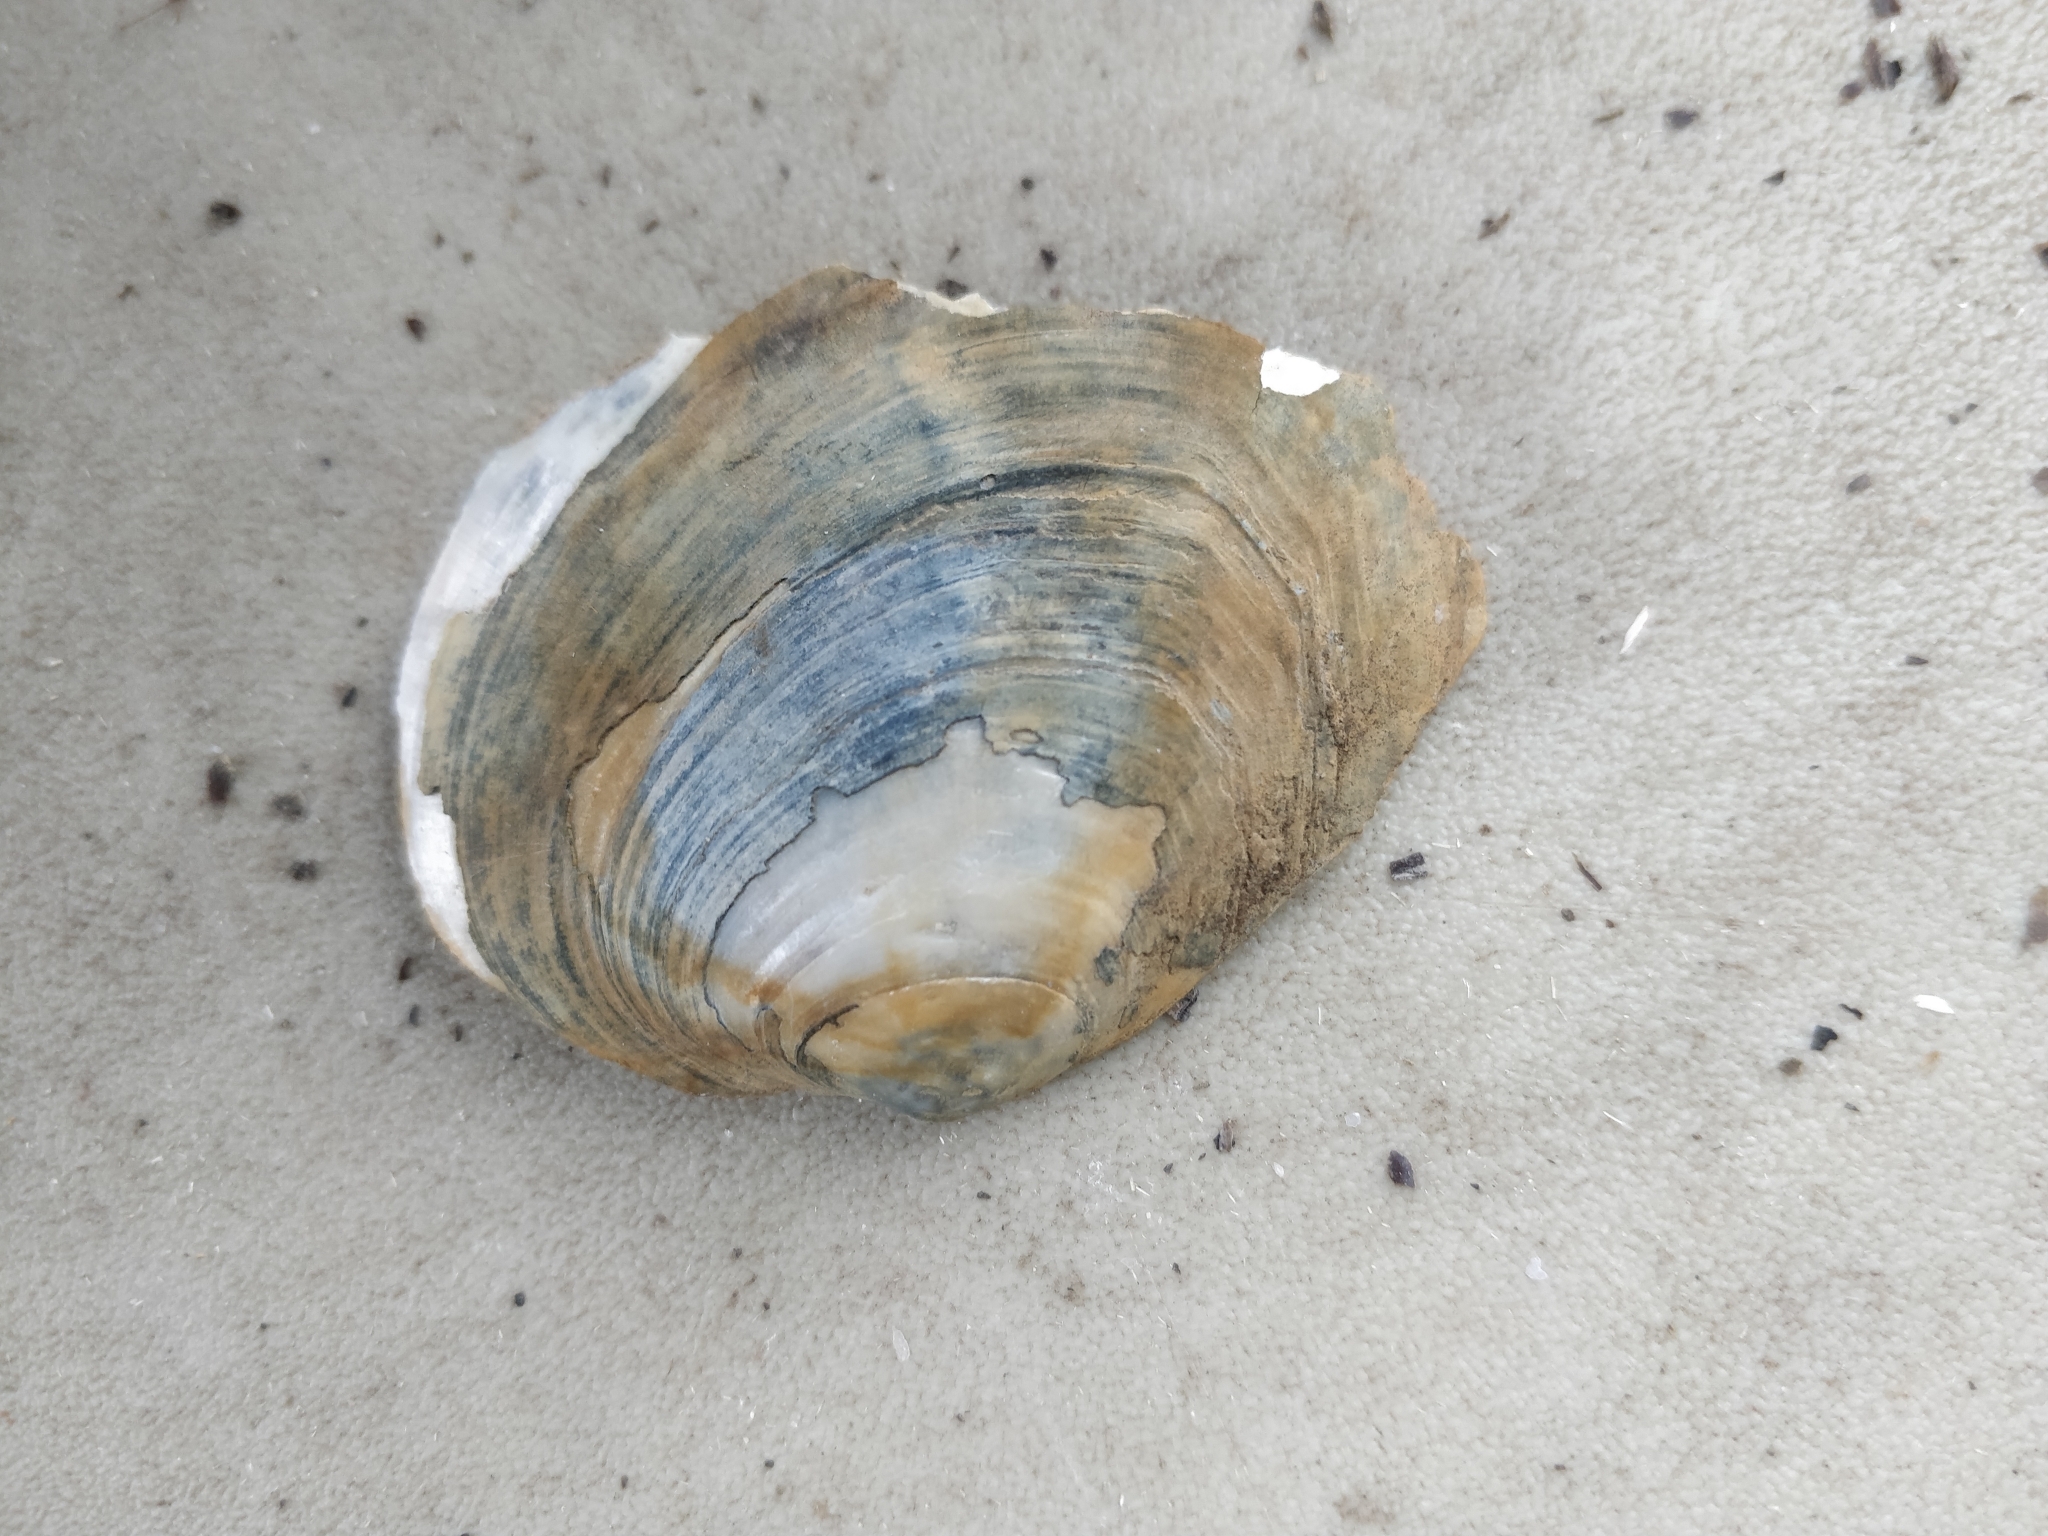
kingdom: Animalia
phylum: Mollusca
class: Bivalvia
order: Unionida
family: Unionidae
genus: Lasmigona
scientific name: Lasmigona complanata
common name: White heelsplitter
